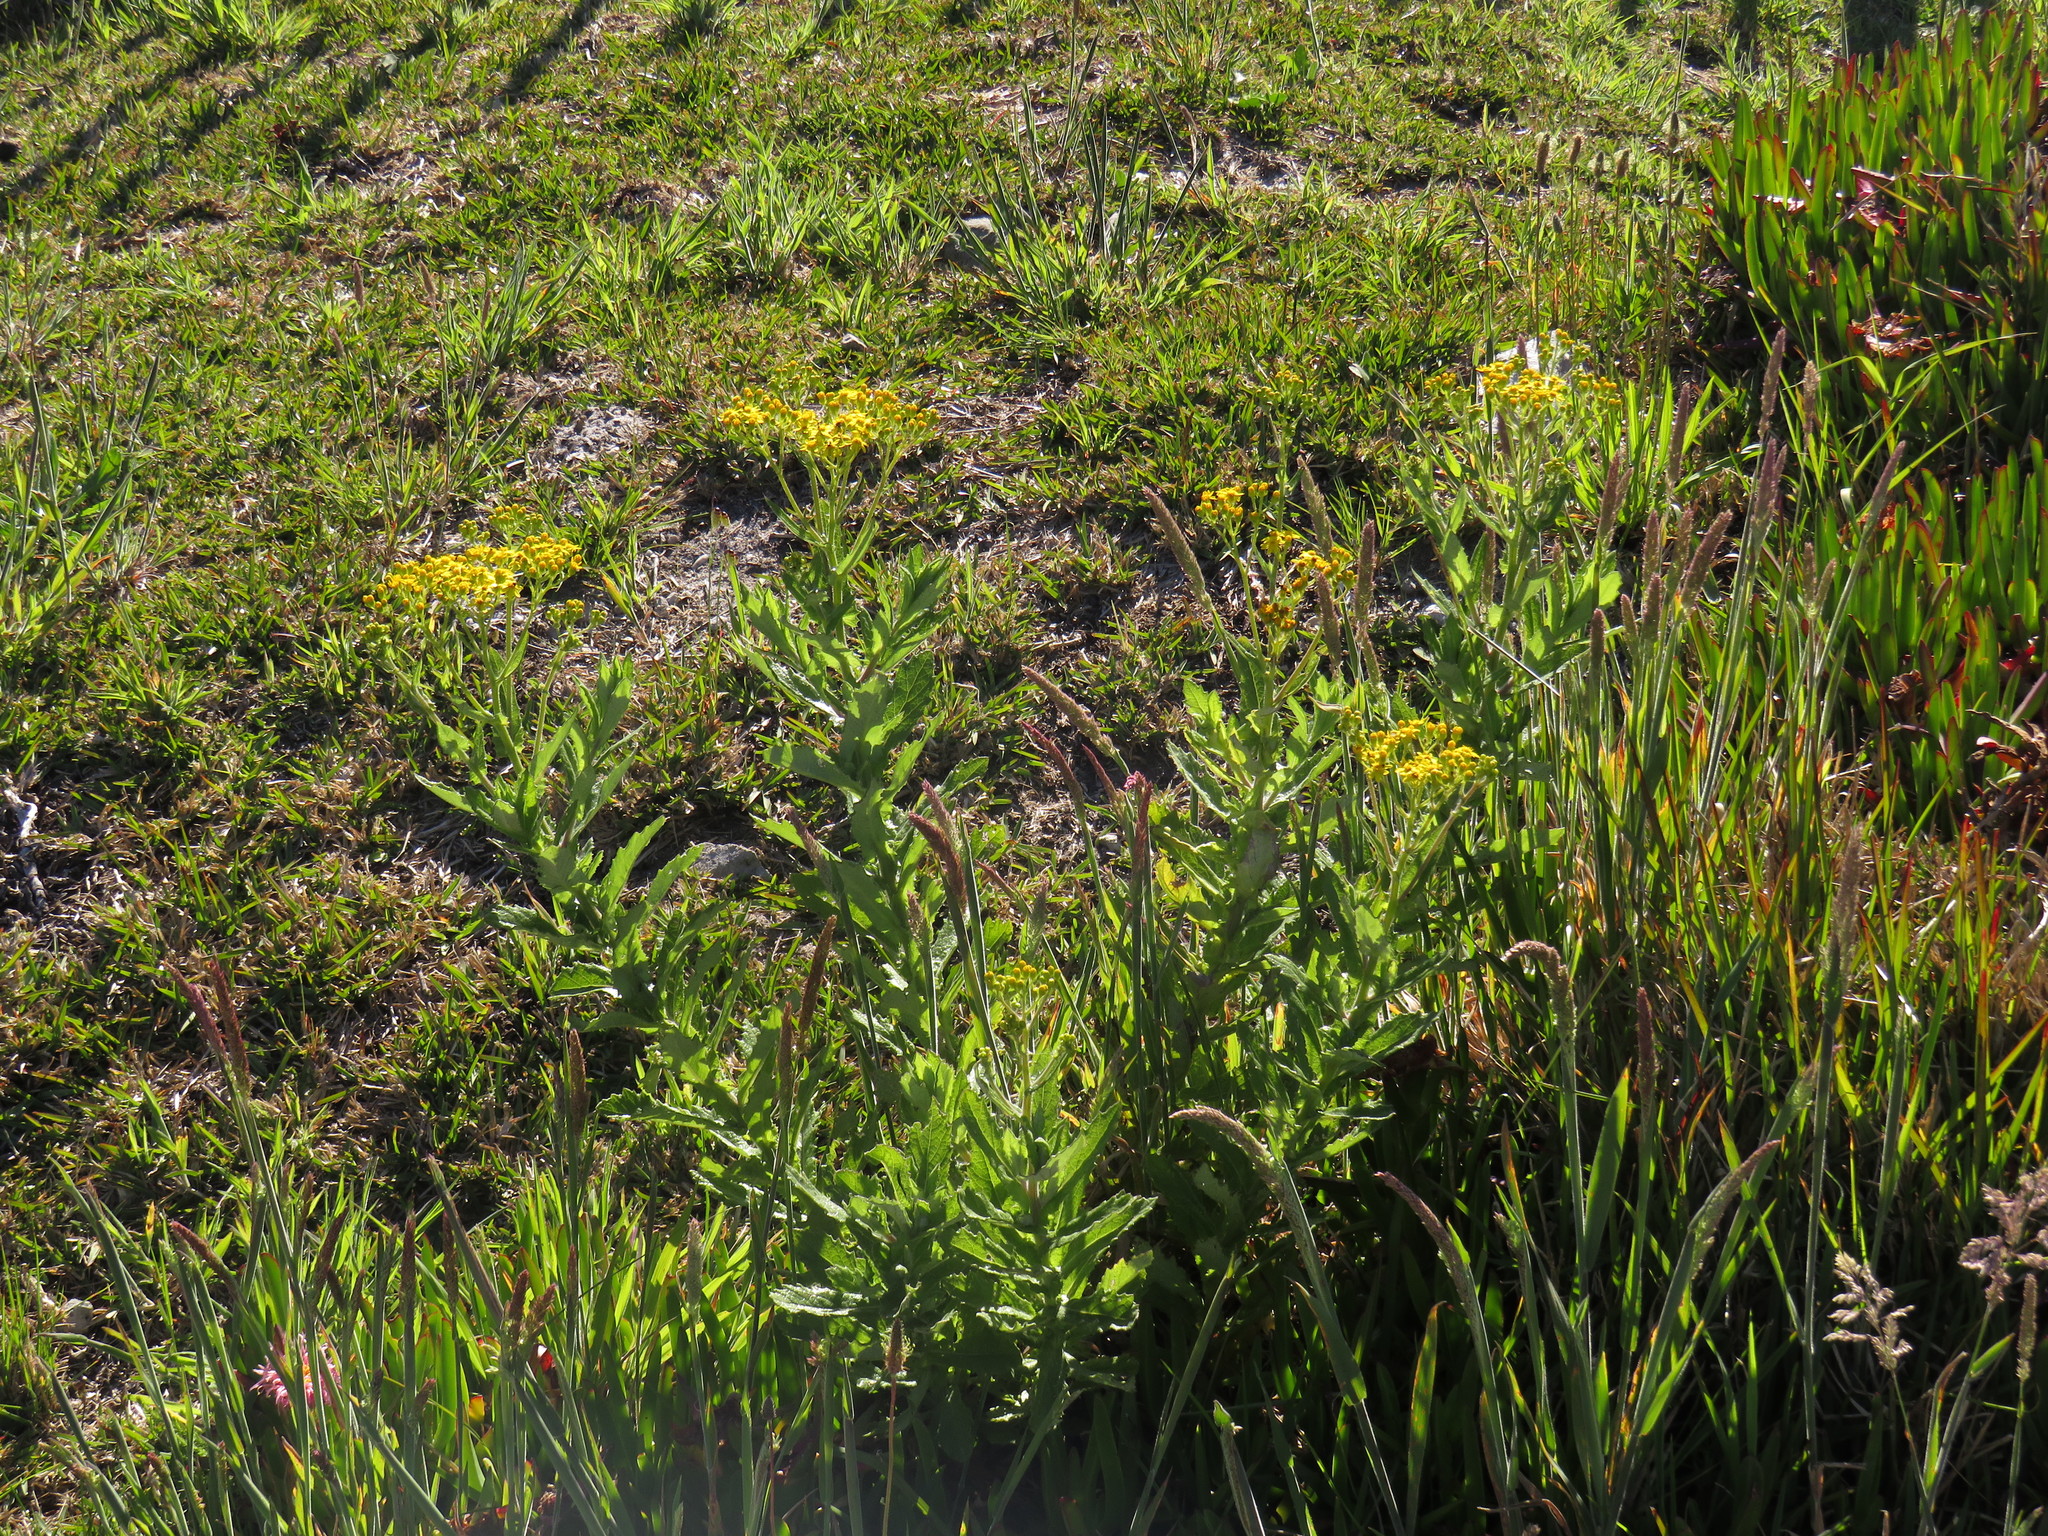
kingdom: Plantae
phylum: Tracheophyta
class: Magnoliopsida
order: Asterales
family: Asteraceae
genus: Senecio
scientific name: Senecio subcanescens
